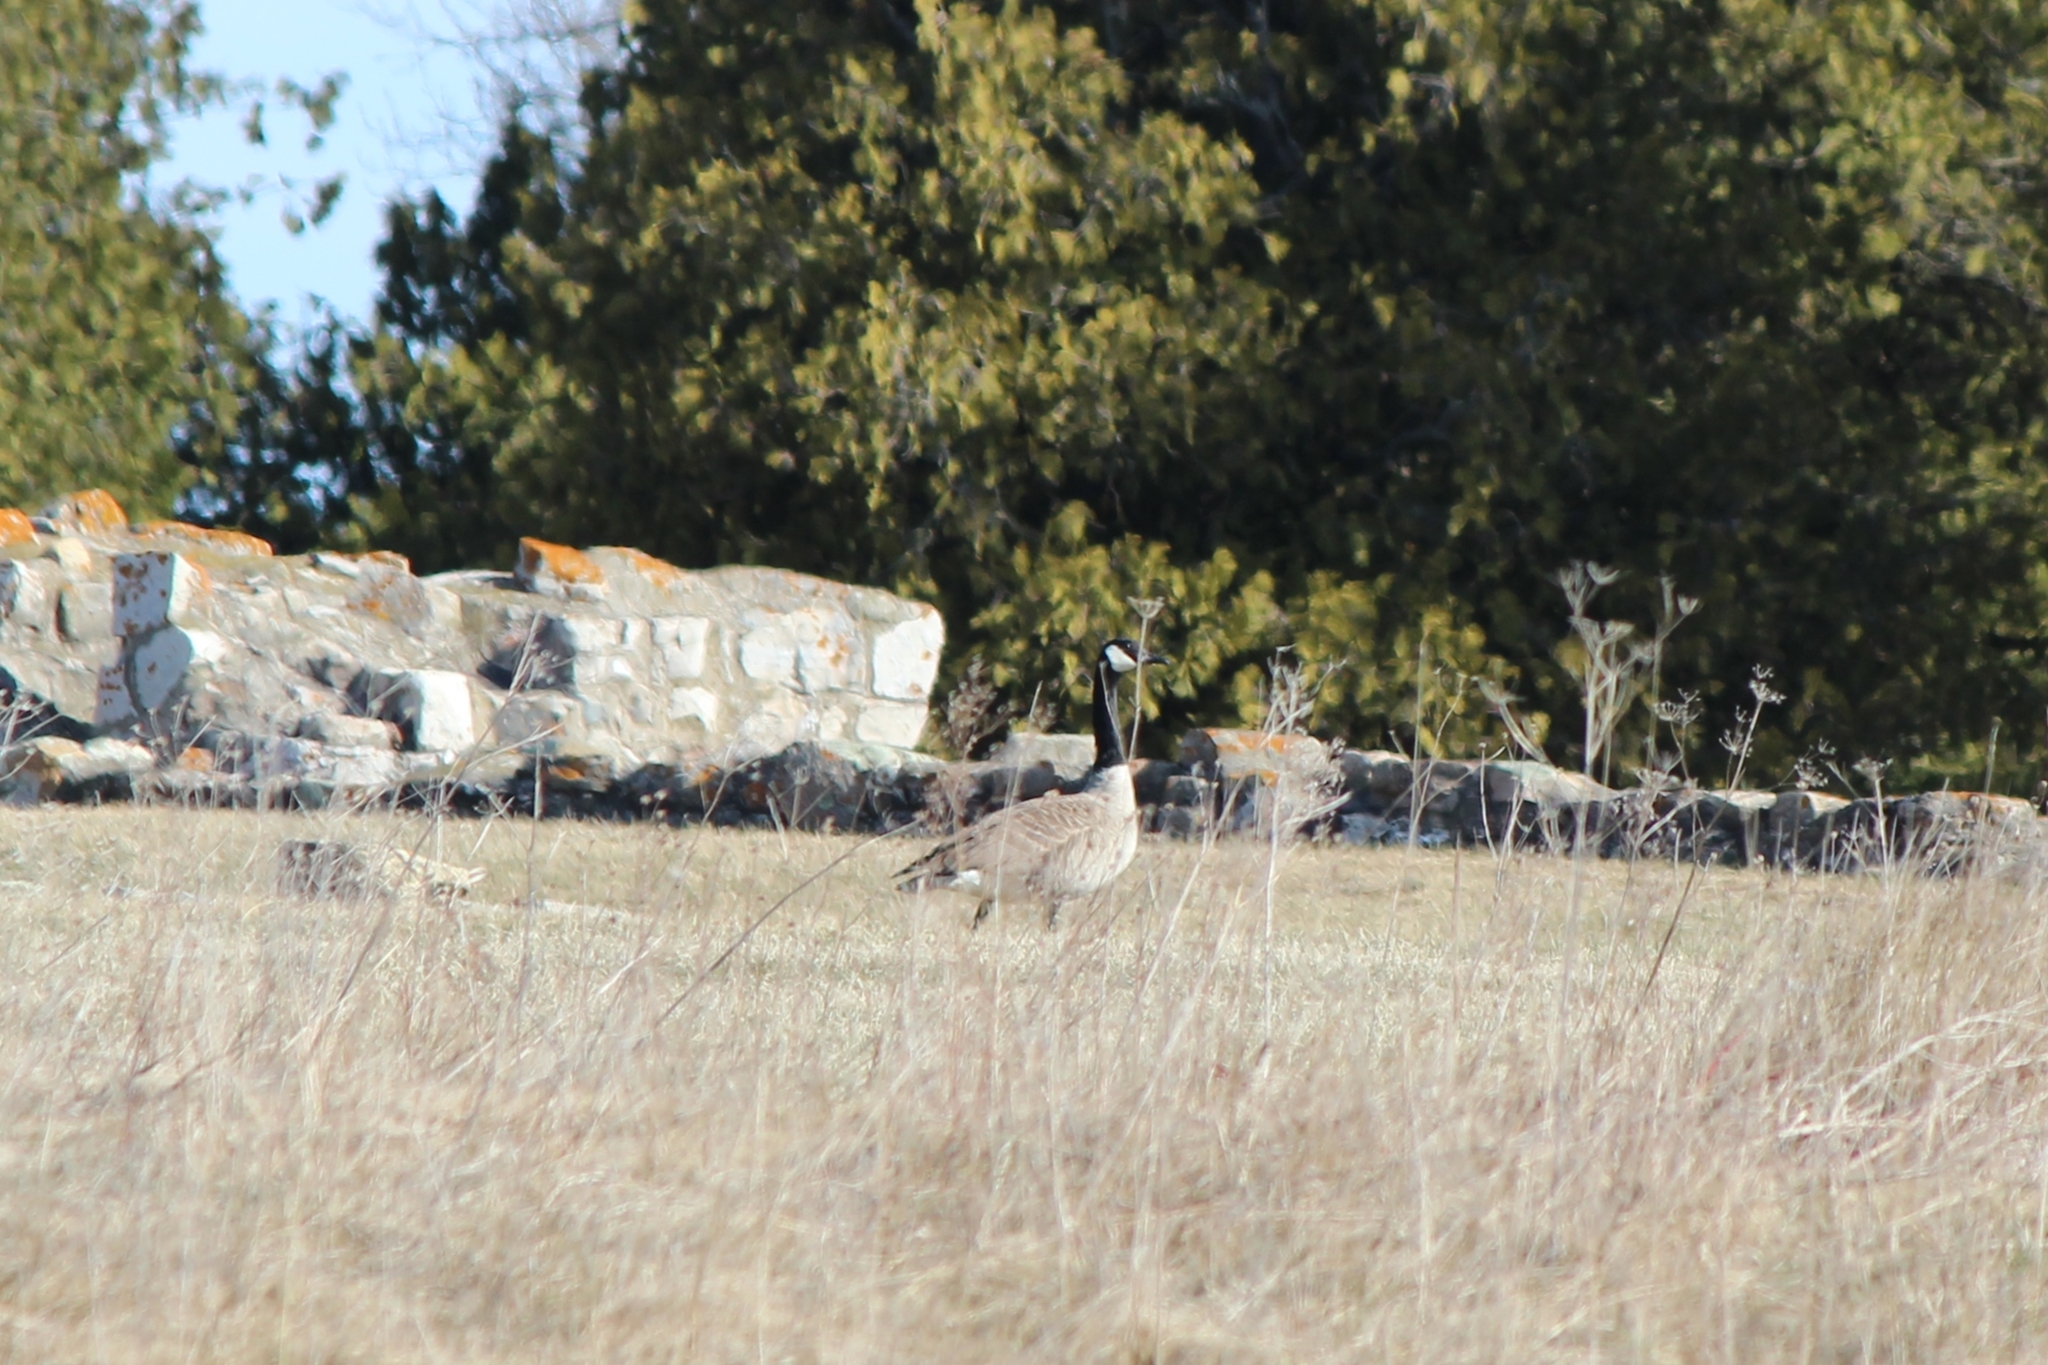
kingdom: Animalia
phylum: Chordata
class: Aves
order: Anseriformes
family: Anatidae
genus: Branta
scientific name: Branta canadensis
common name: Canada goose
